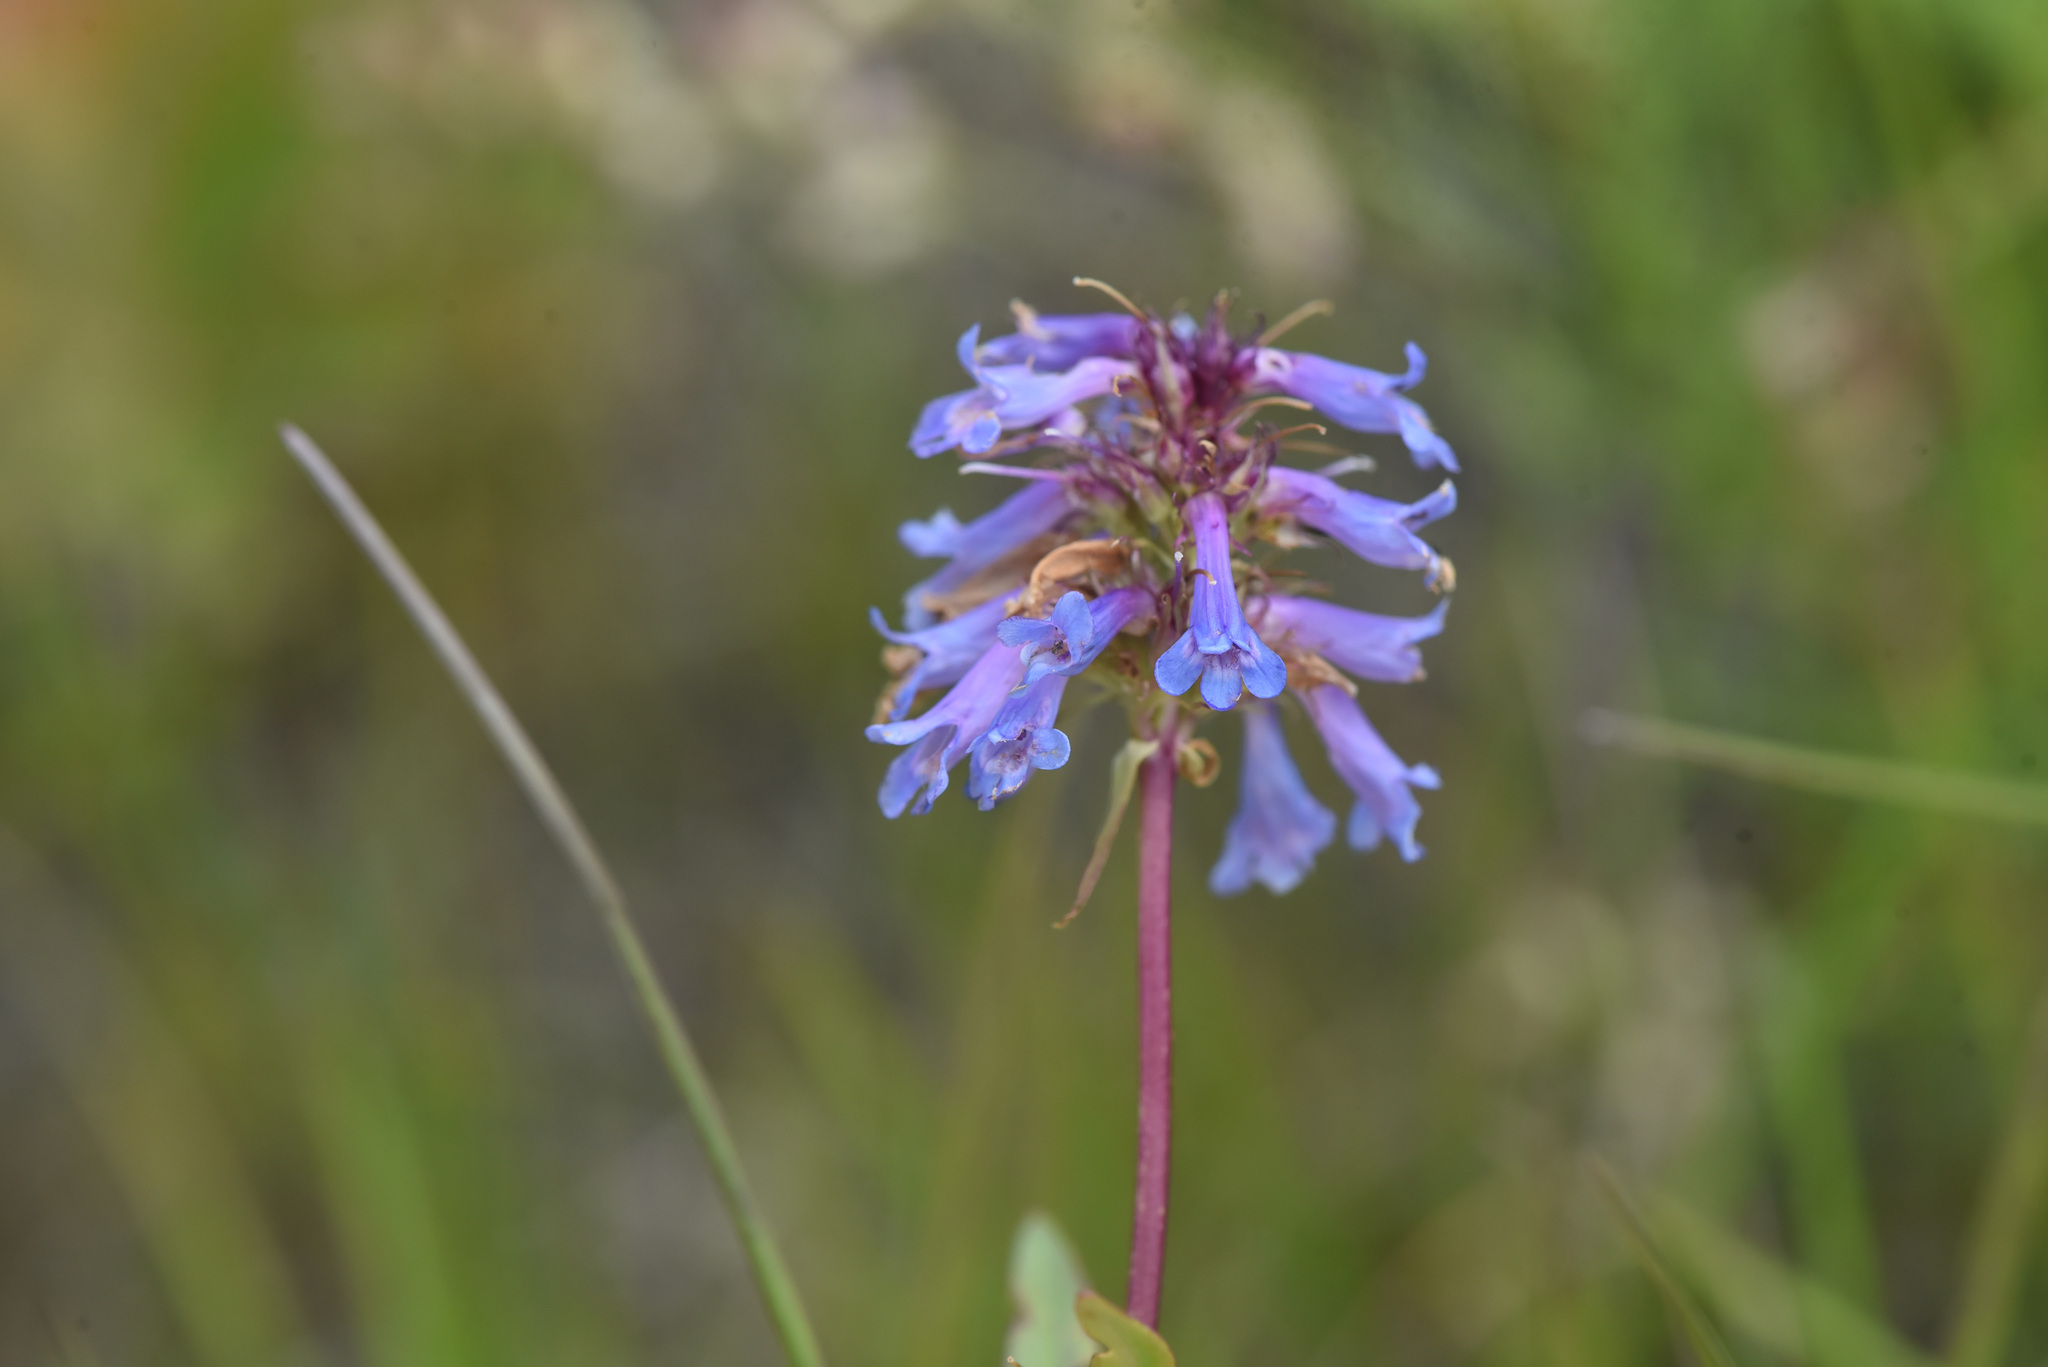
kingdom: Plantae
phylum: Tracheophyta
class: Magnoliopsida
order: Lamiales
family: Plantaginaceae
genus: Penstemon
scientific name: Penstemon procerus
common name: Small-flower penstemon
